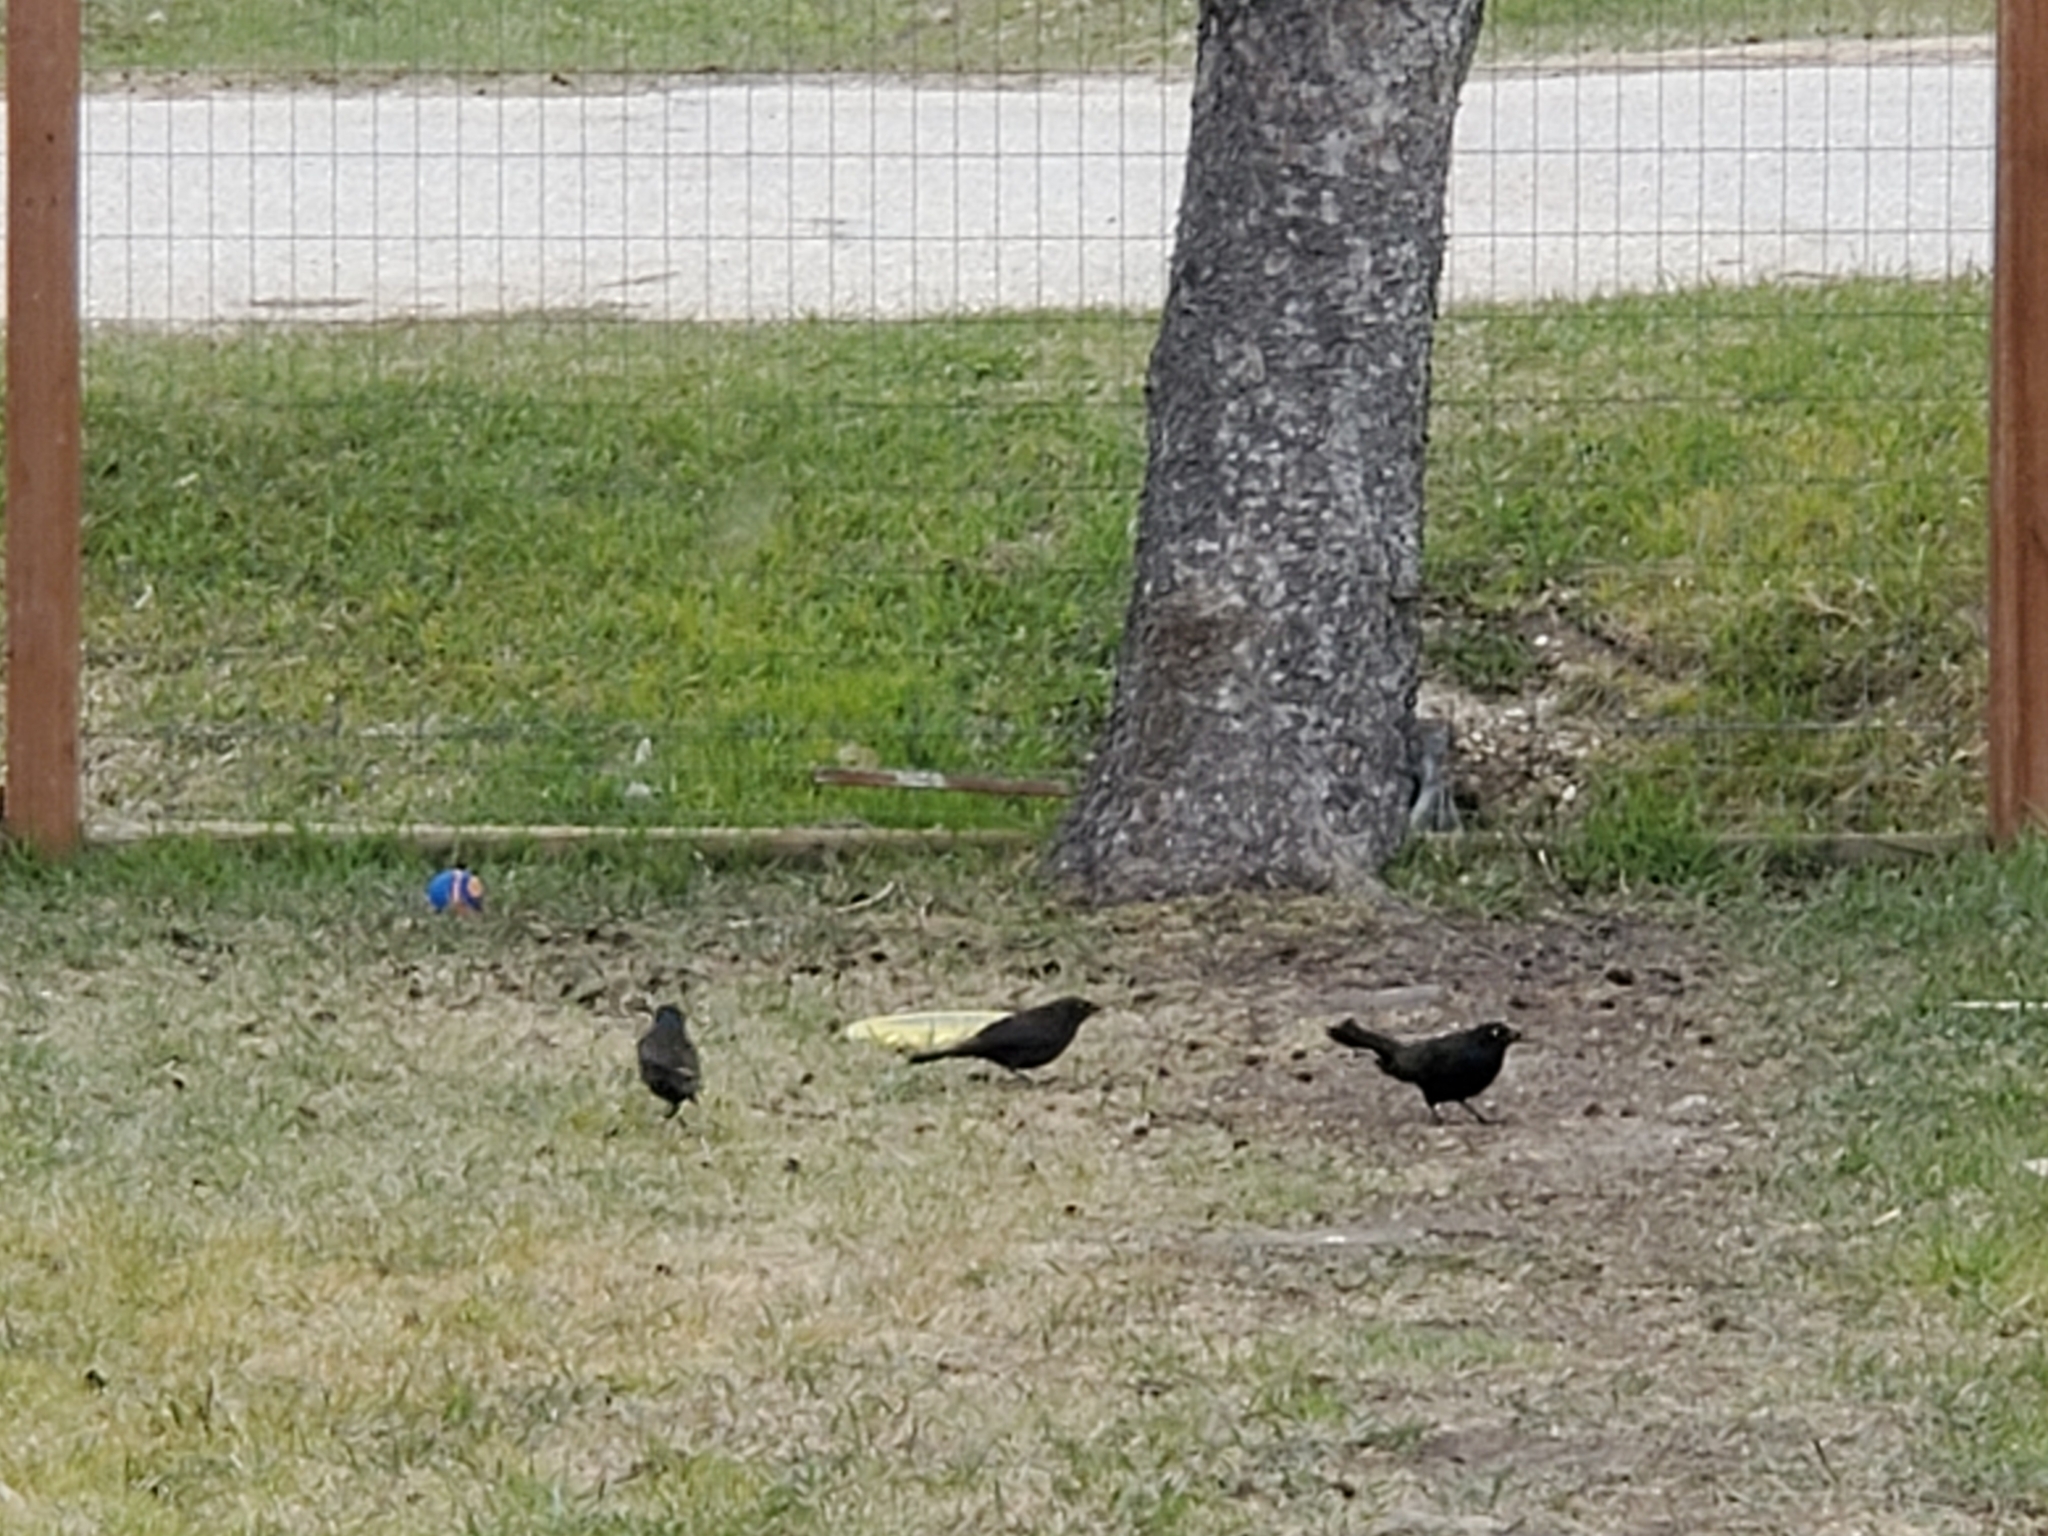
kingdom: Animalia
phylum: Chordata
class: Aves
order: Passeriformes
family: Icteridae
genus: Quiscalus
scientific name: Quiscalus quiscula
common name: Common grackle
